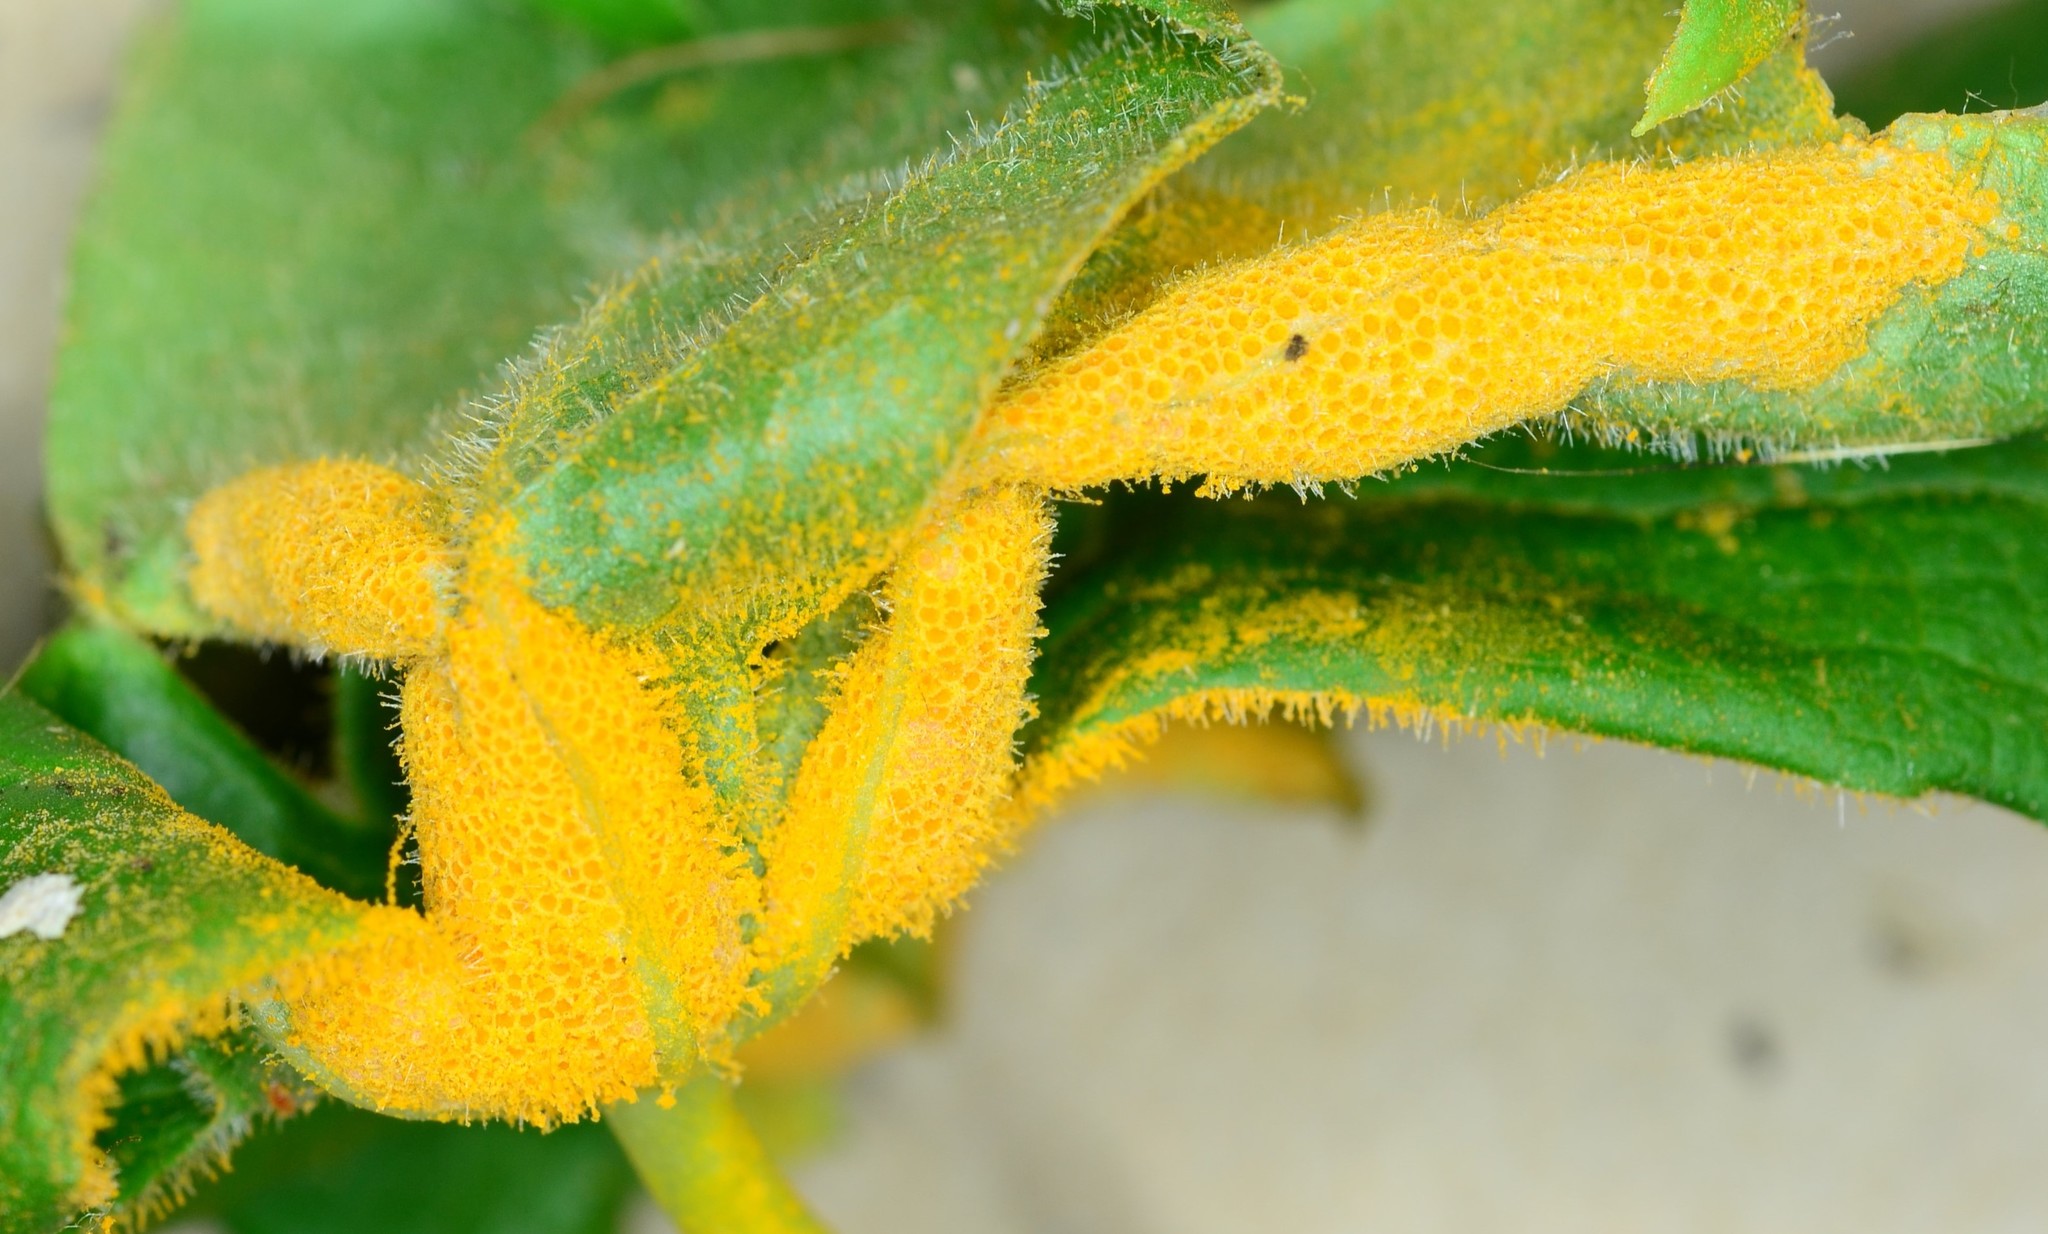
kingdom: Fungi
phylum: Basidiomycota
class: Pucciniomycetes
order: Pucciniales
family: Pucciniaceae
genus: Puccinia
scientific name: Puccinia podophylli
